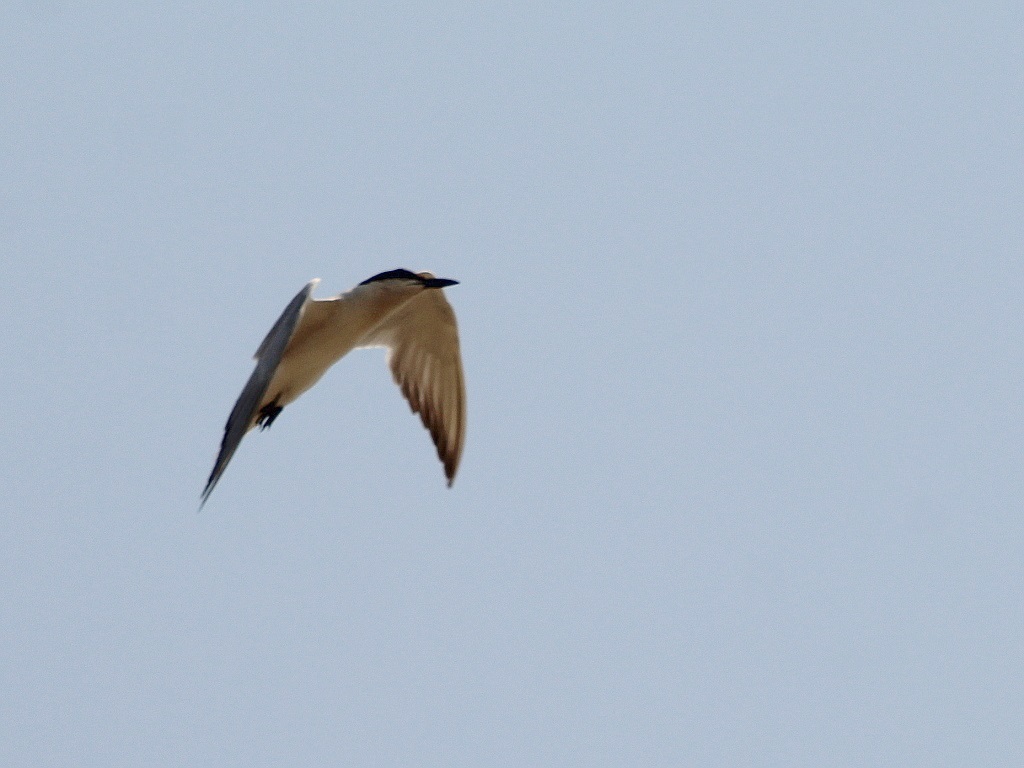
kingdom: Animalia
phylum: Chordata
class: Aves
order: Charadriiformes
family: Laridae
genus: Gelochelidon
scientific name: Gelochelidon nilotica
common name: Gull-billed tern
